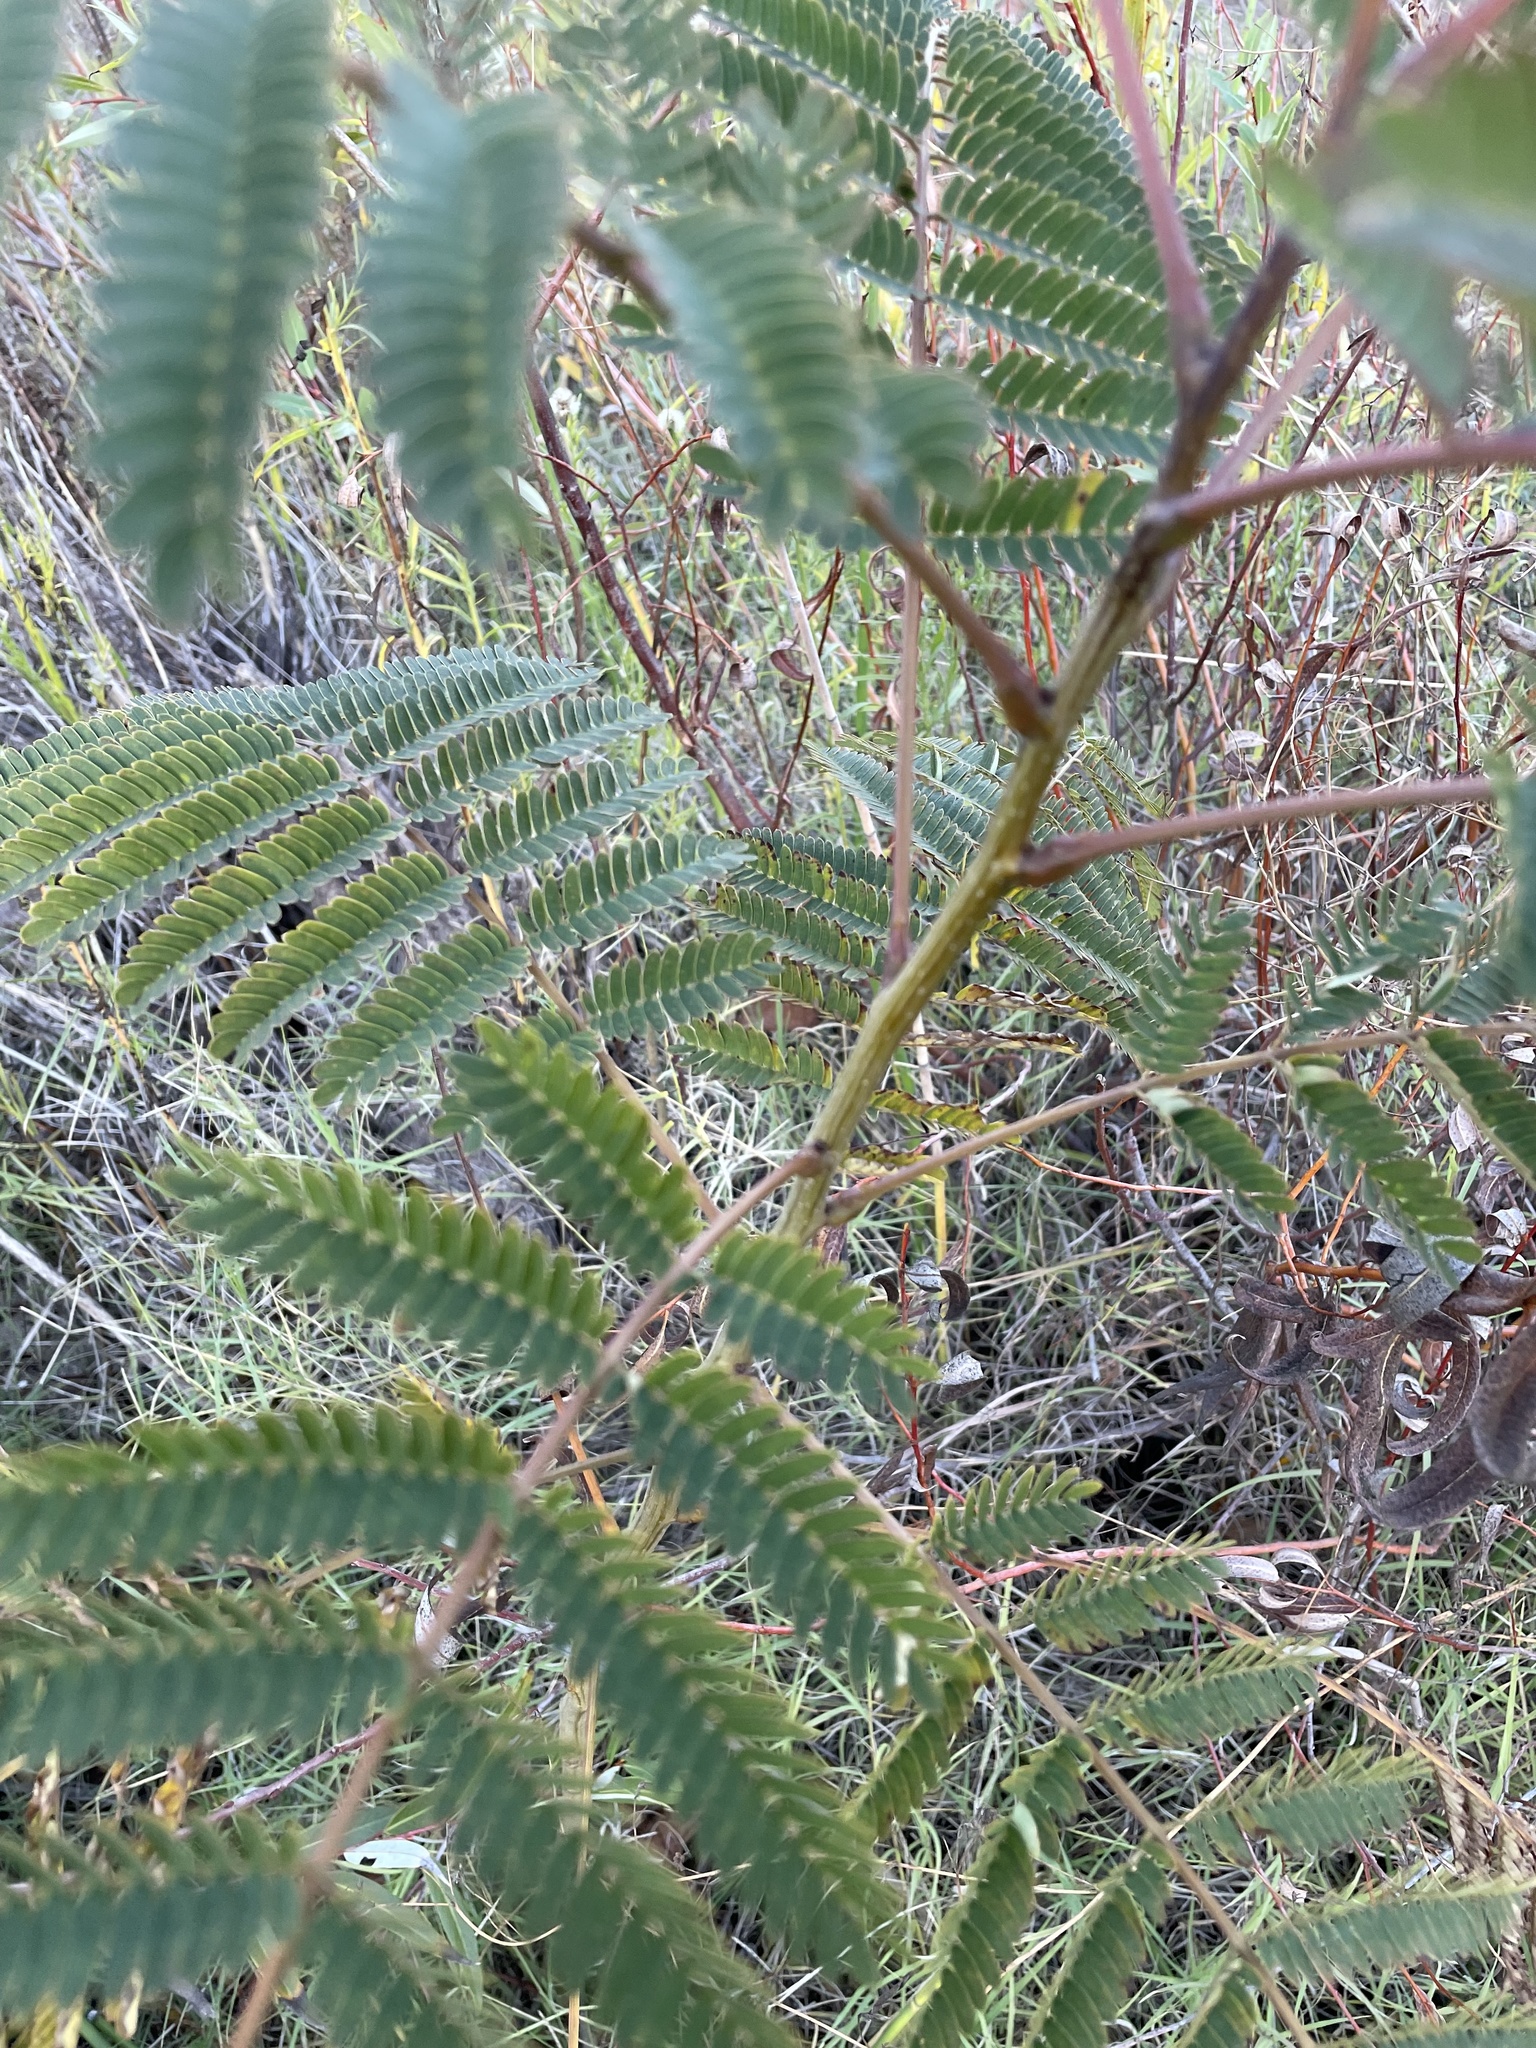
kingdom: Plantae
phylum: Tracheophyta
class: Magnoliopsida
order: Fabales
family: Fabaceae
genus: Albizia
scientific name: Albizia julibrissin
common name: Silktree
